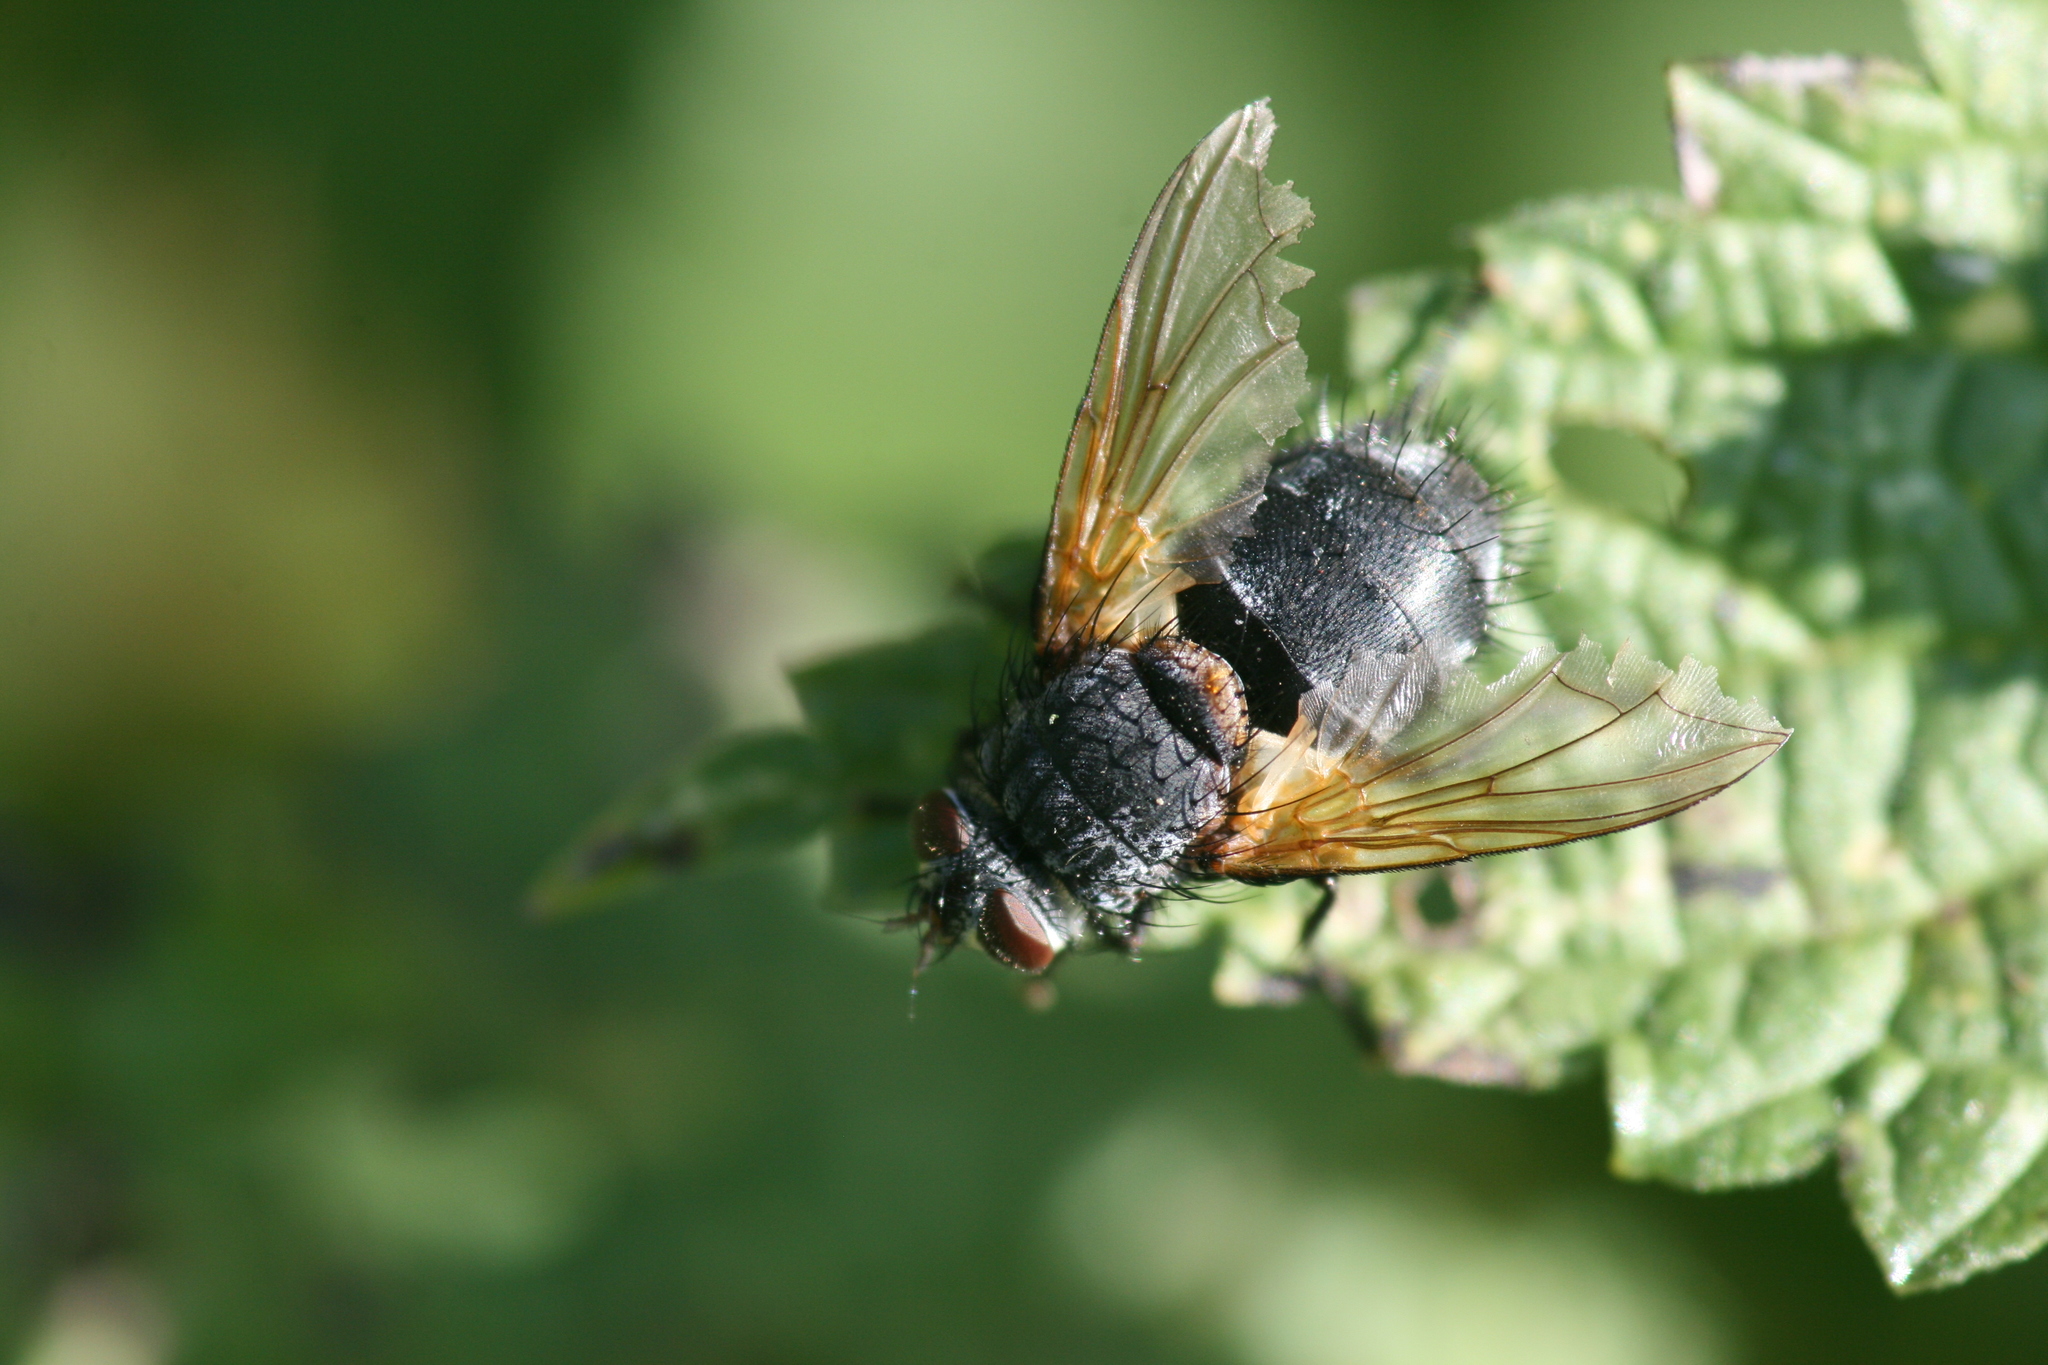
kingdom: Animalia
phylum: Arthropoda
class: Insecta
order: Diptera
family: Tachinidae
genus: Nemoraea
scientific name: Nemoraea pellucida
